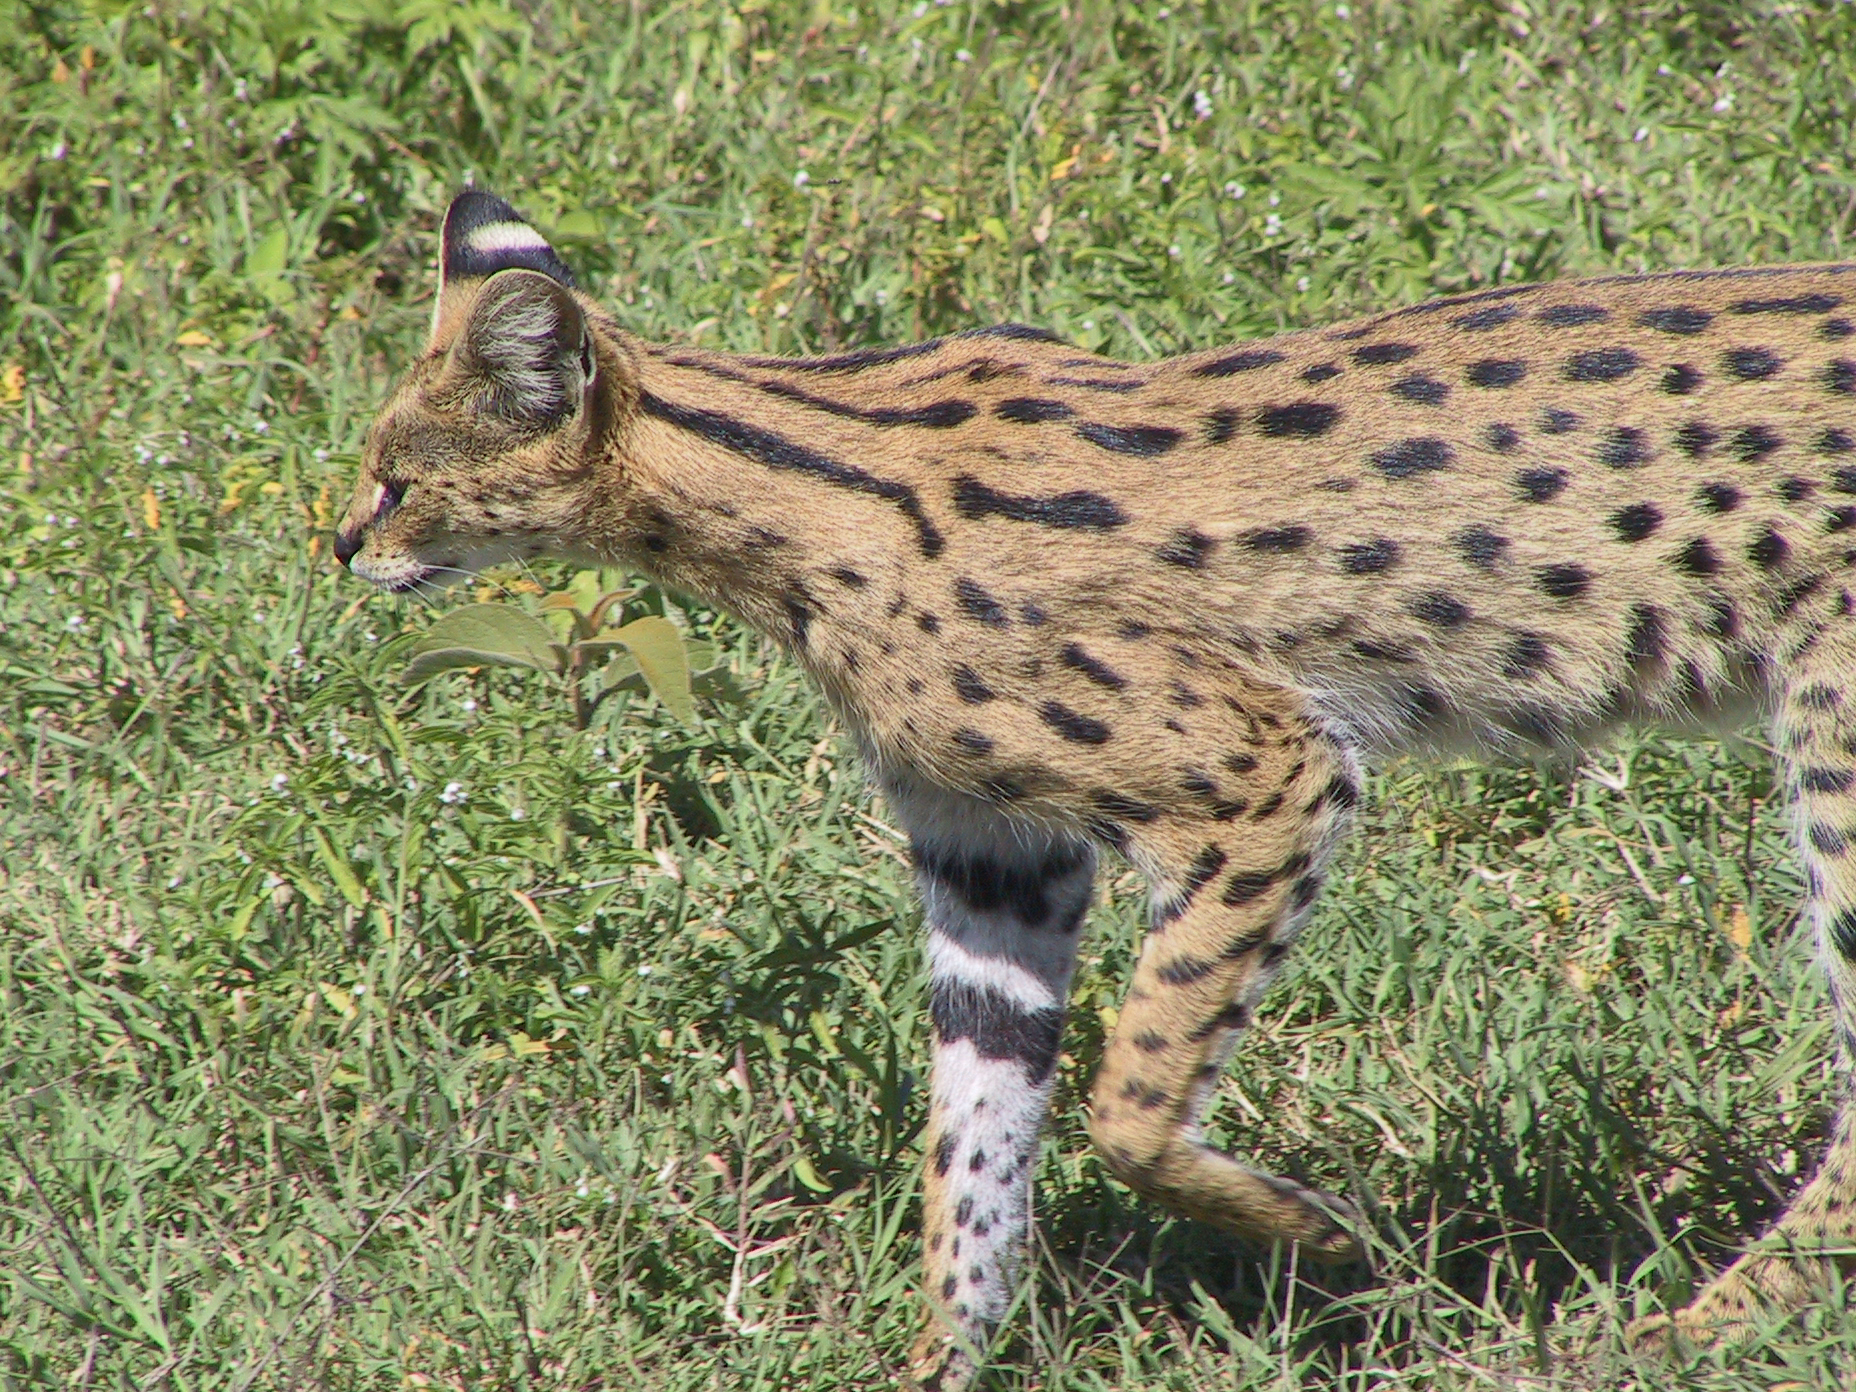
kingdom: Animalia
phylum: Chordata
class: Mammalia
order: Carnivora
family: Felidae
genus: Leptailurus
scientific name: Leptailurus serval
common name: Serval
